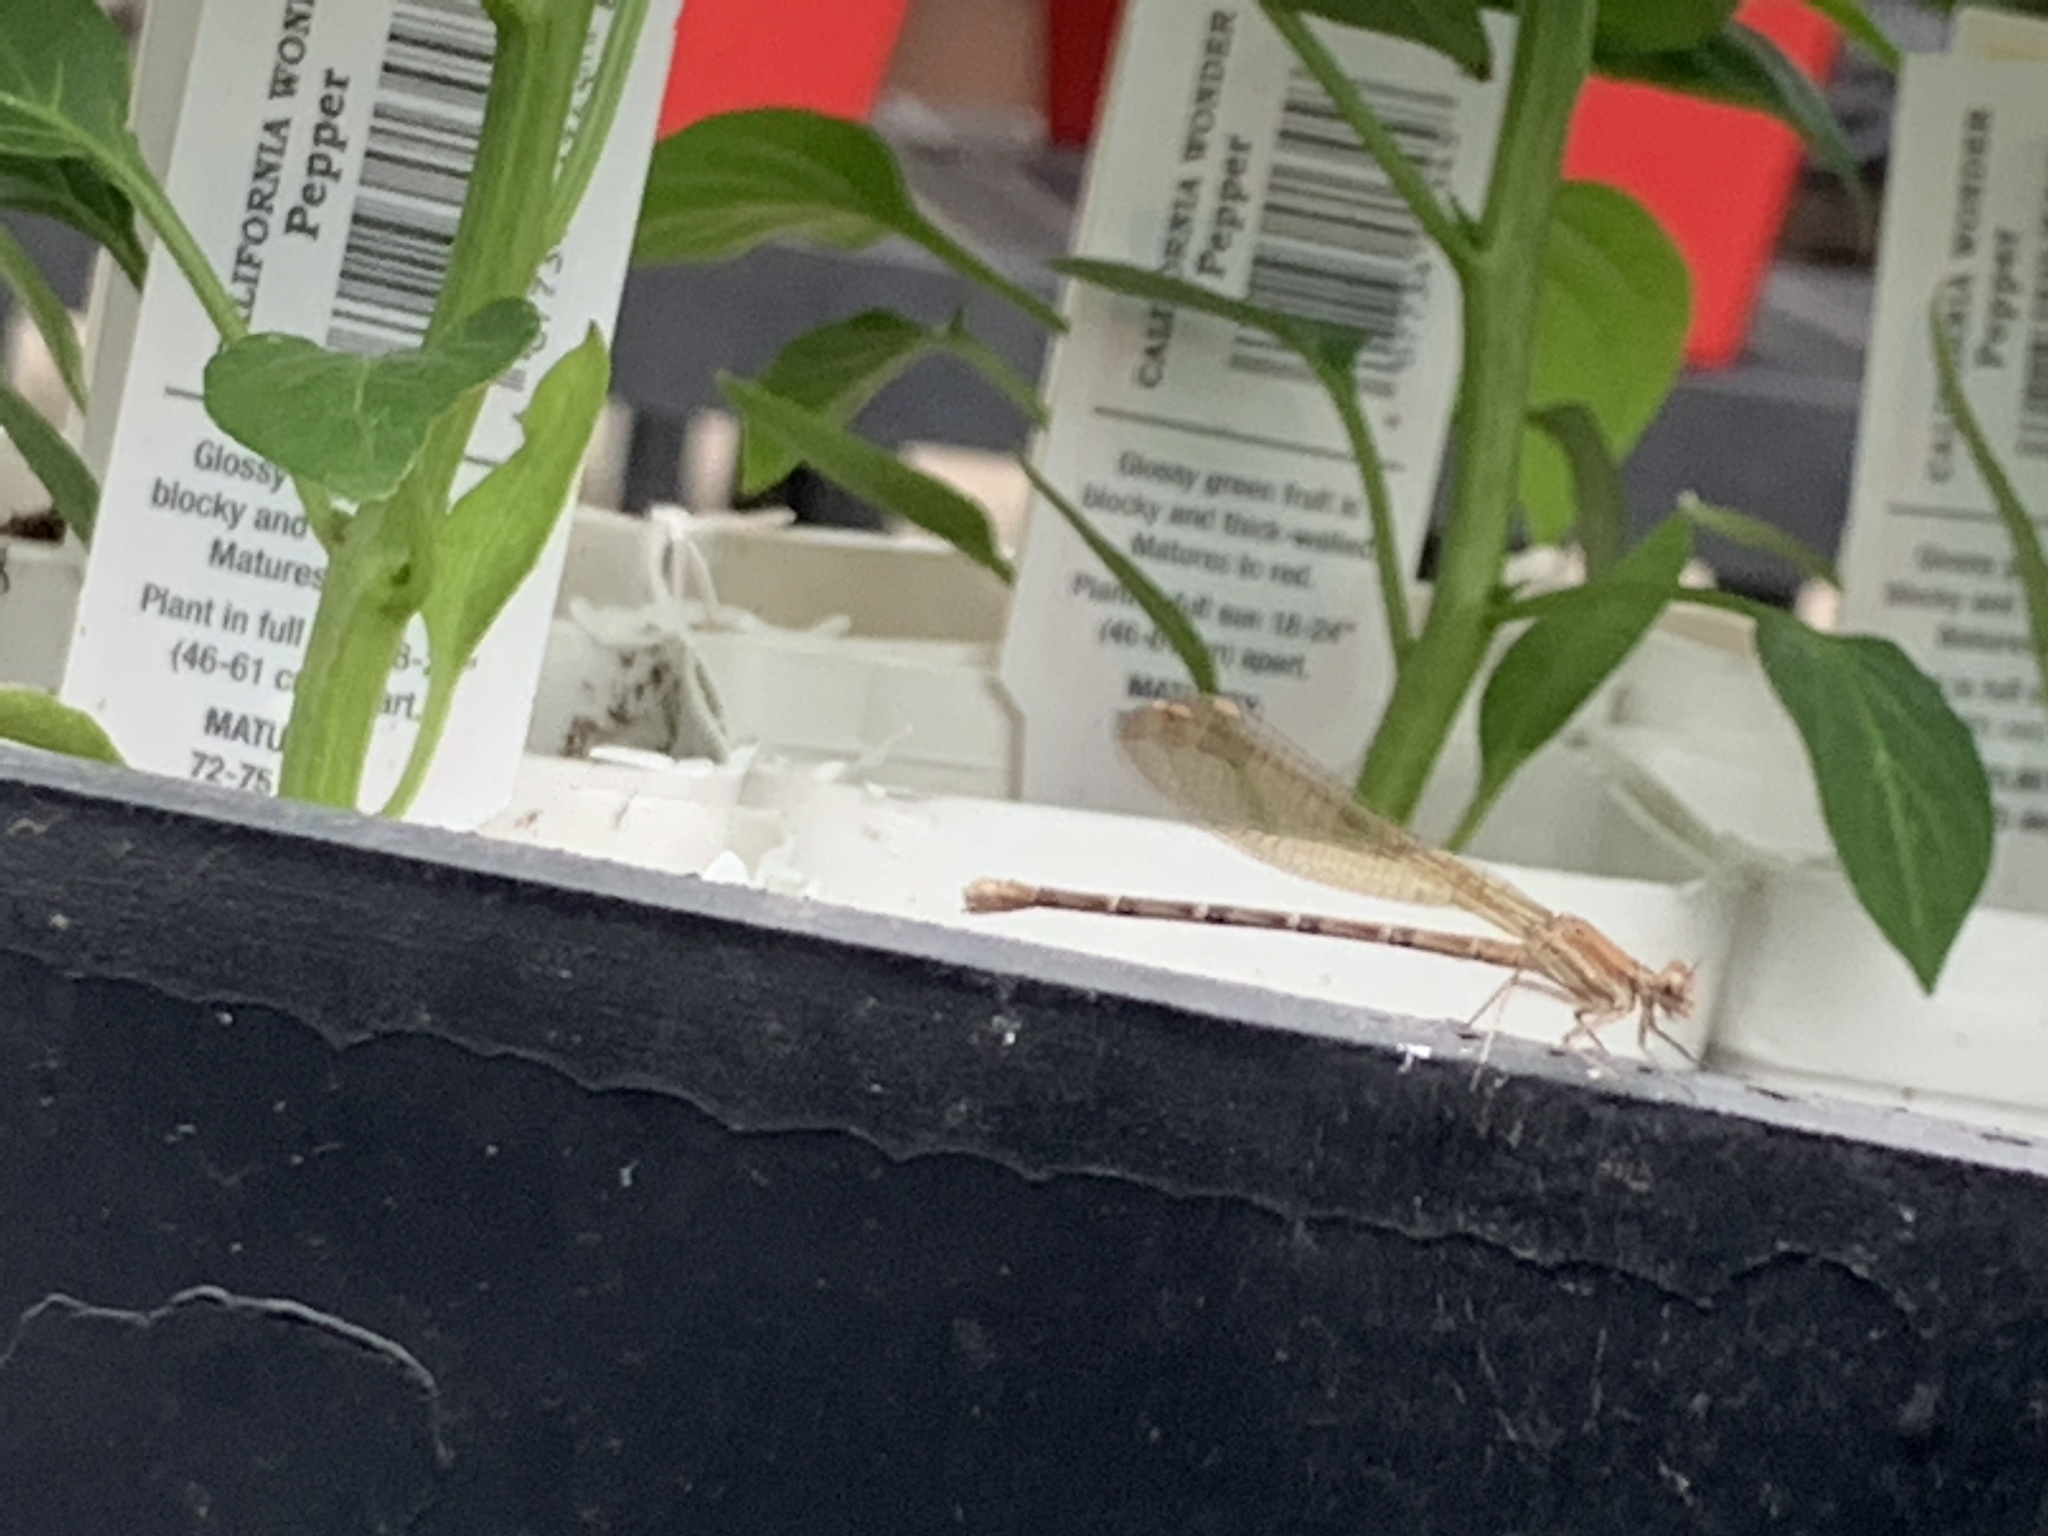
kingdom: Animalia
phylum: Arthropoda
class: Insecta
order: Odonata
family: Coenagrionidae
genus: Argia
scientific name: Argia sedula
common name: Blue-ringed dancer
